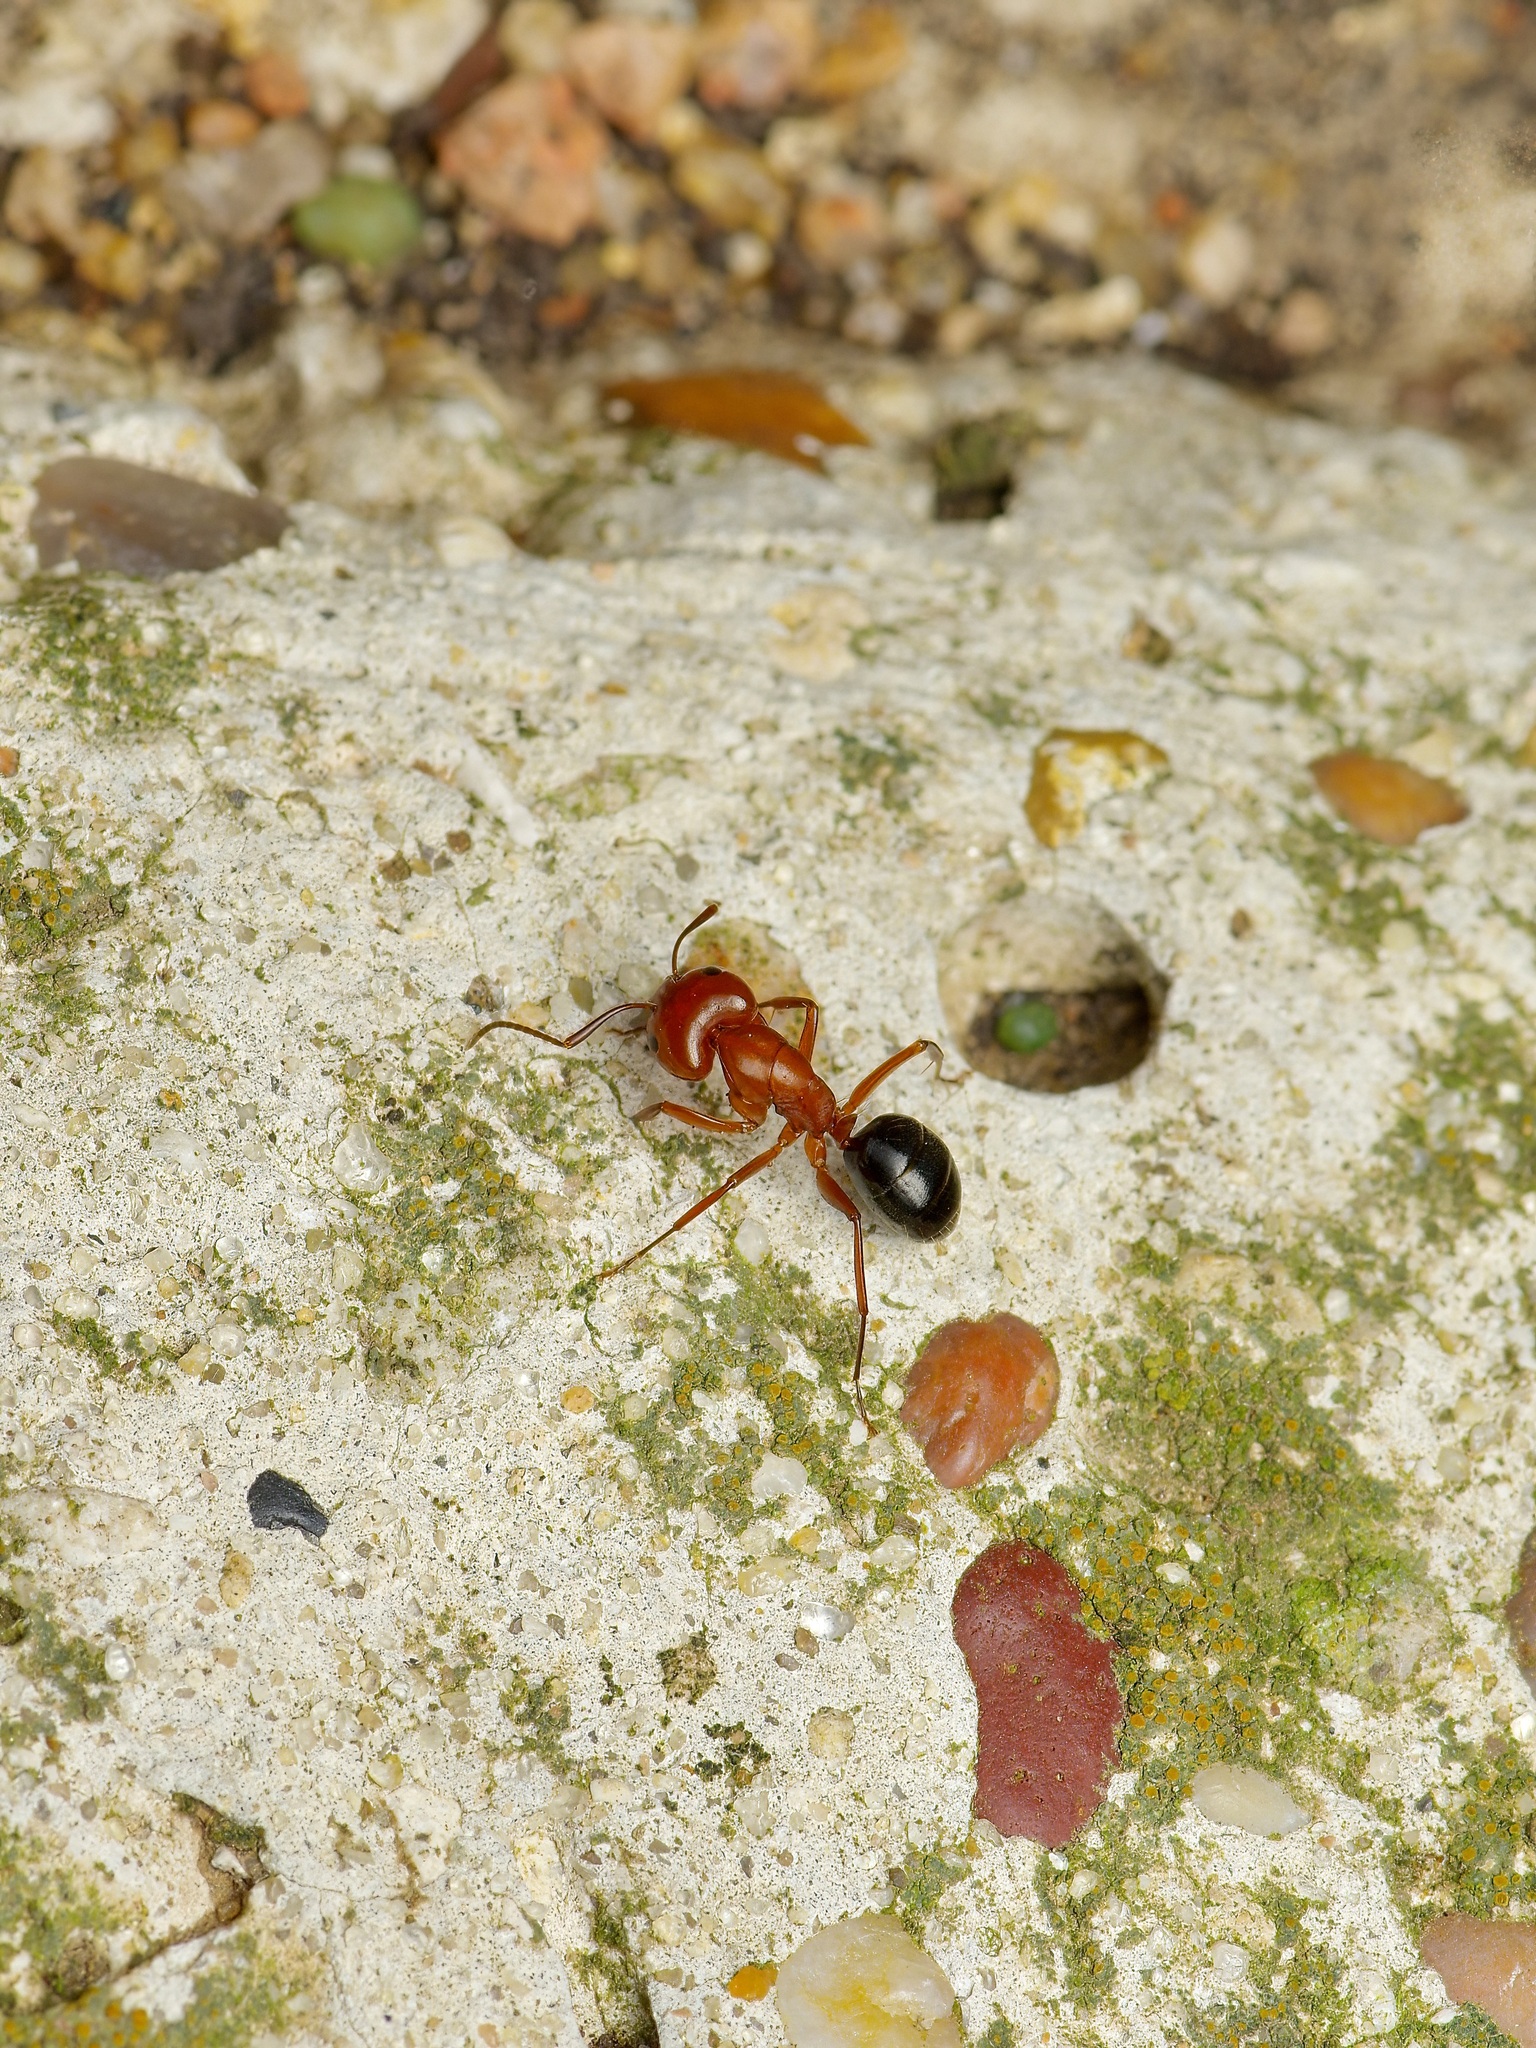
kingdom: Animalia
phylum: Arthropoda
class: Insecta
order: Hymenoptera
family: Formicidae
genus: Camponotus
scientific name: Camponotus decipiens
